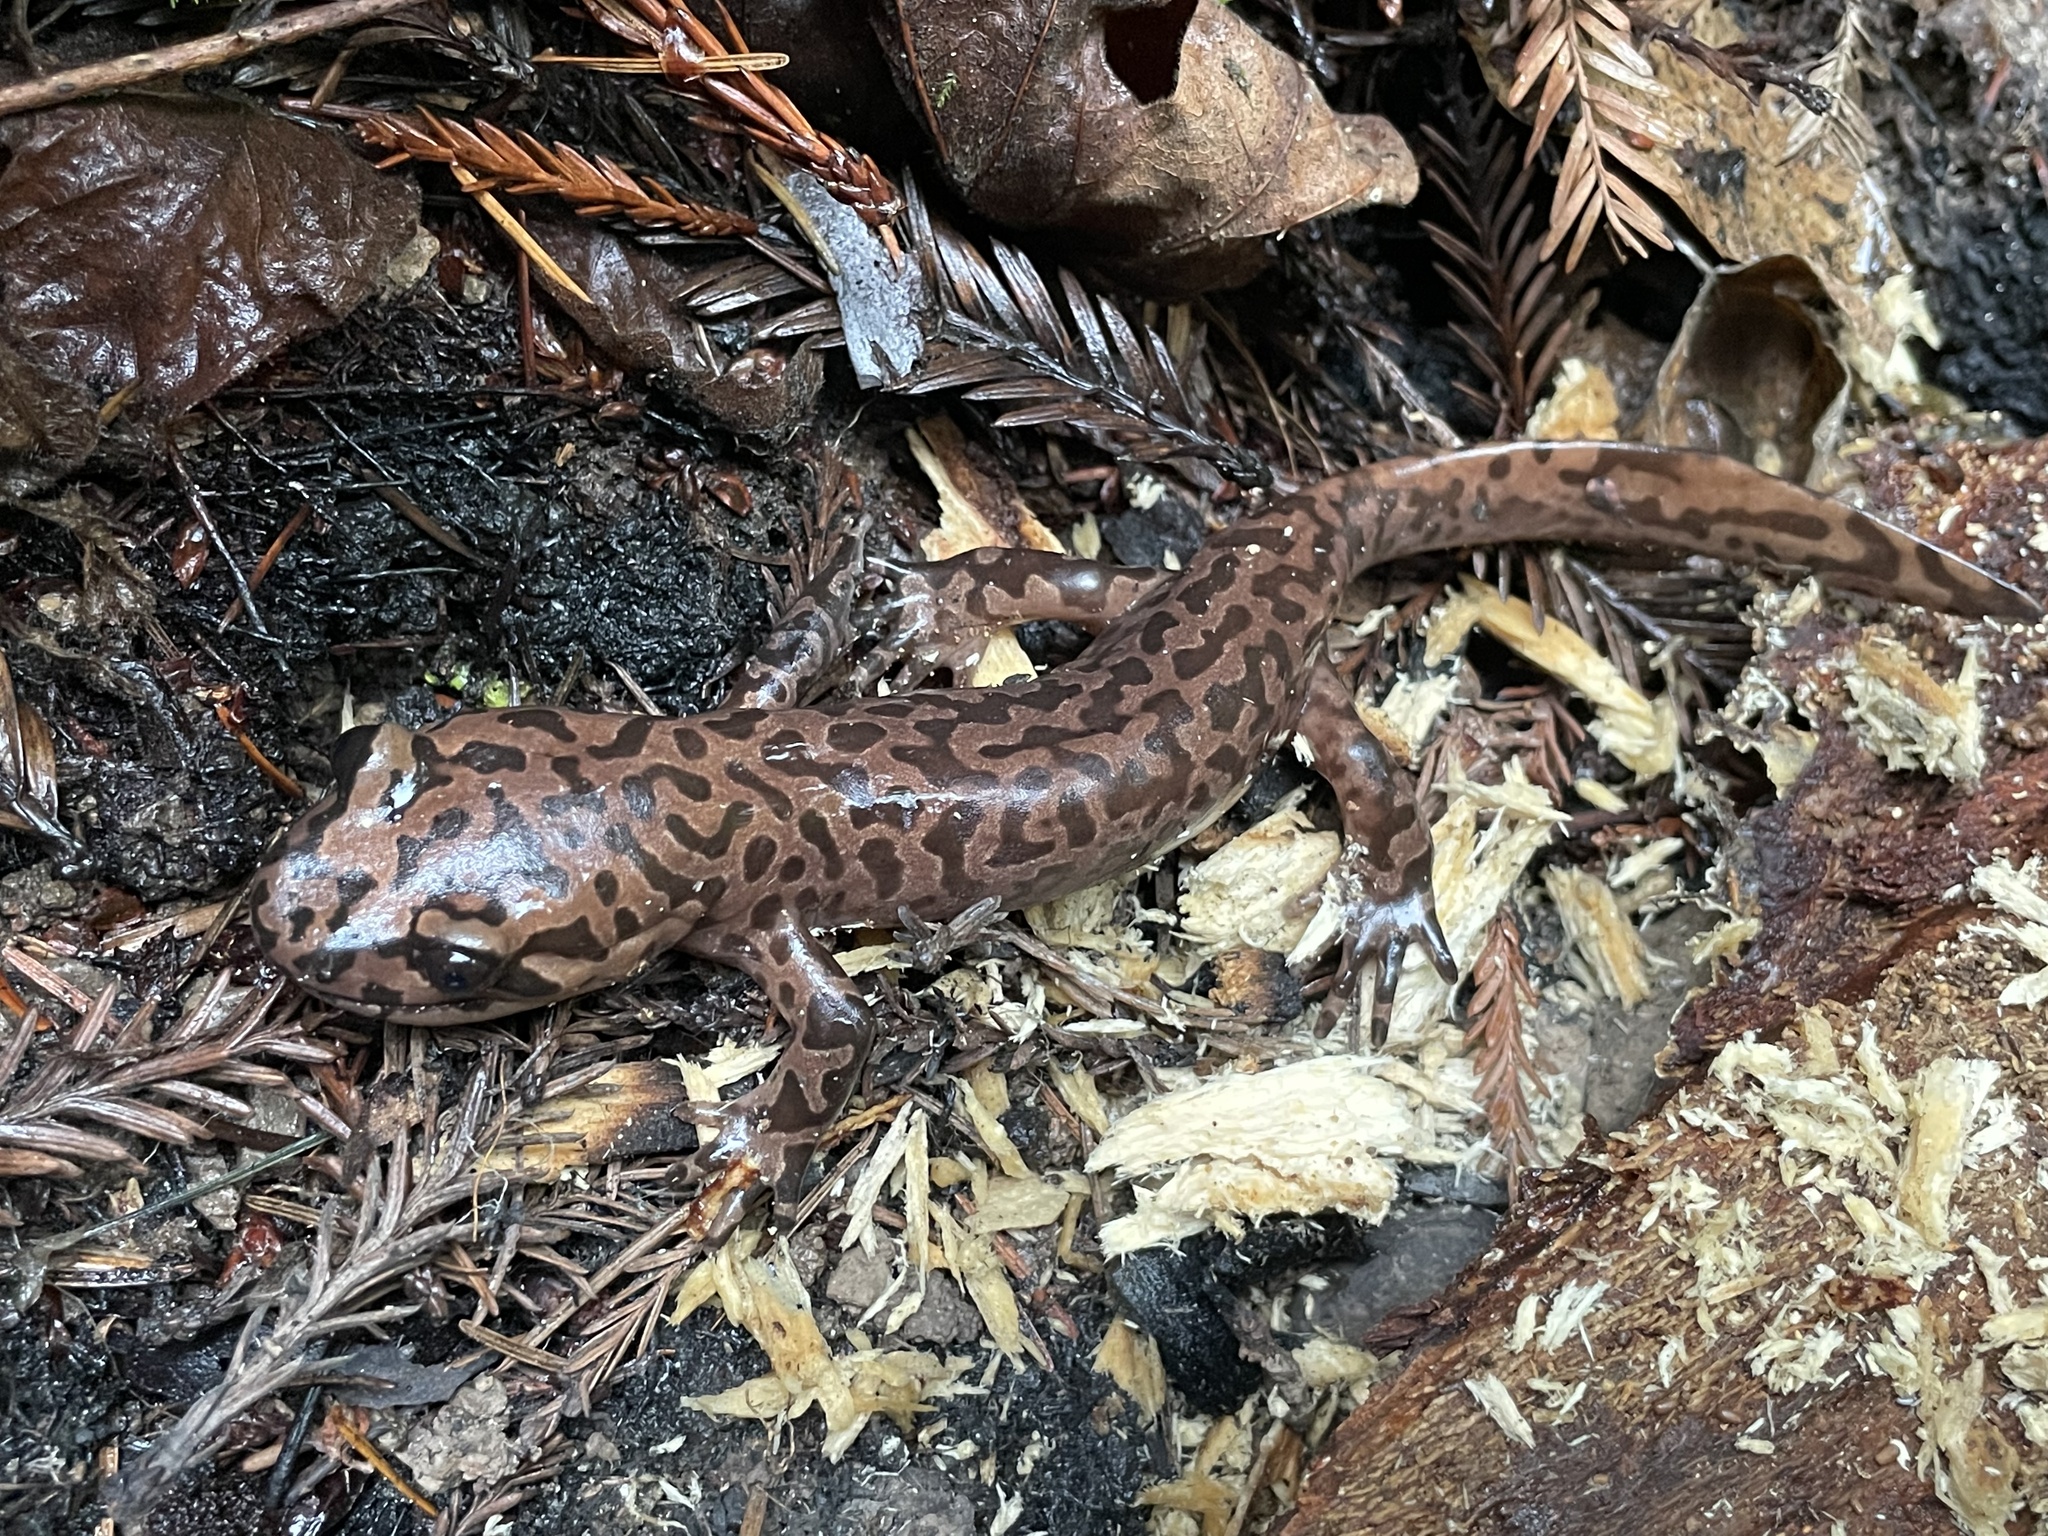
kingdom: Animalia
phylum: Chordata
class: Amphibia
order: Caudata
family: Ambystomatidae
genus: Dicamptodon
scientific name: Dicamptodon ensatus
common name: California giant salamander
